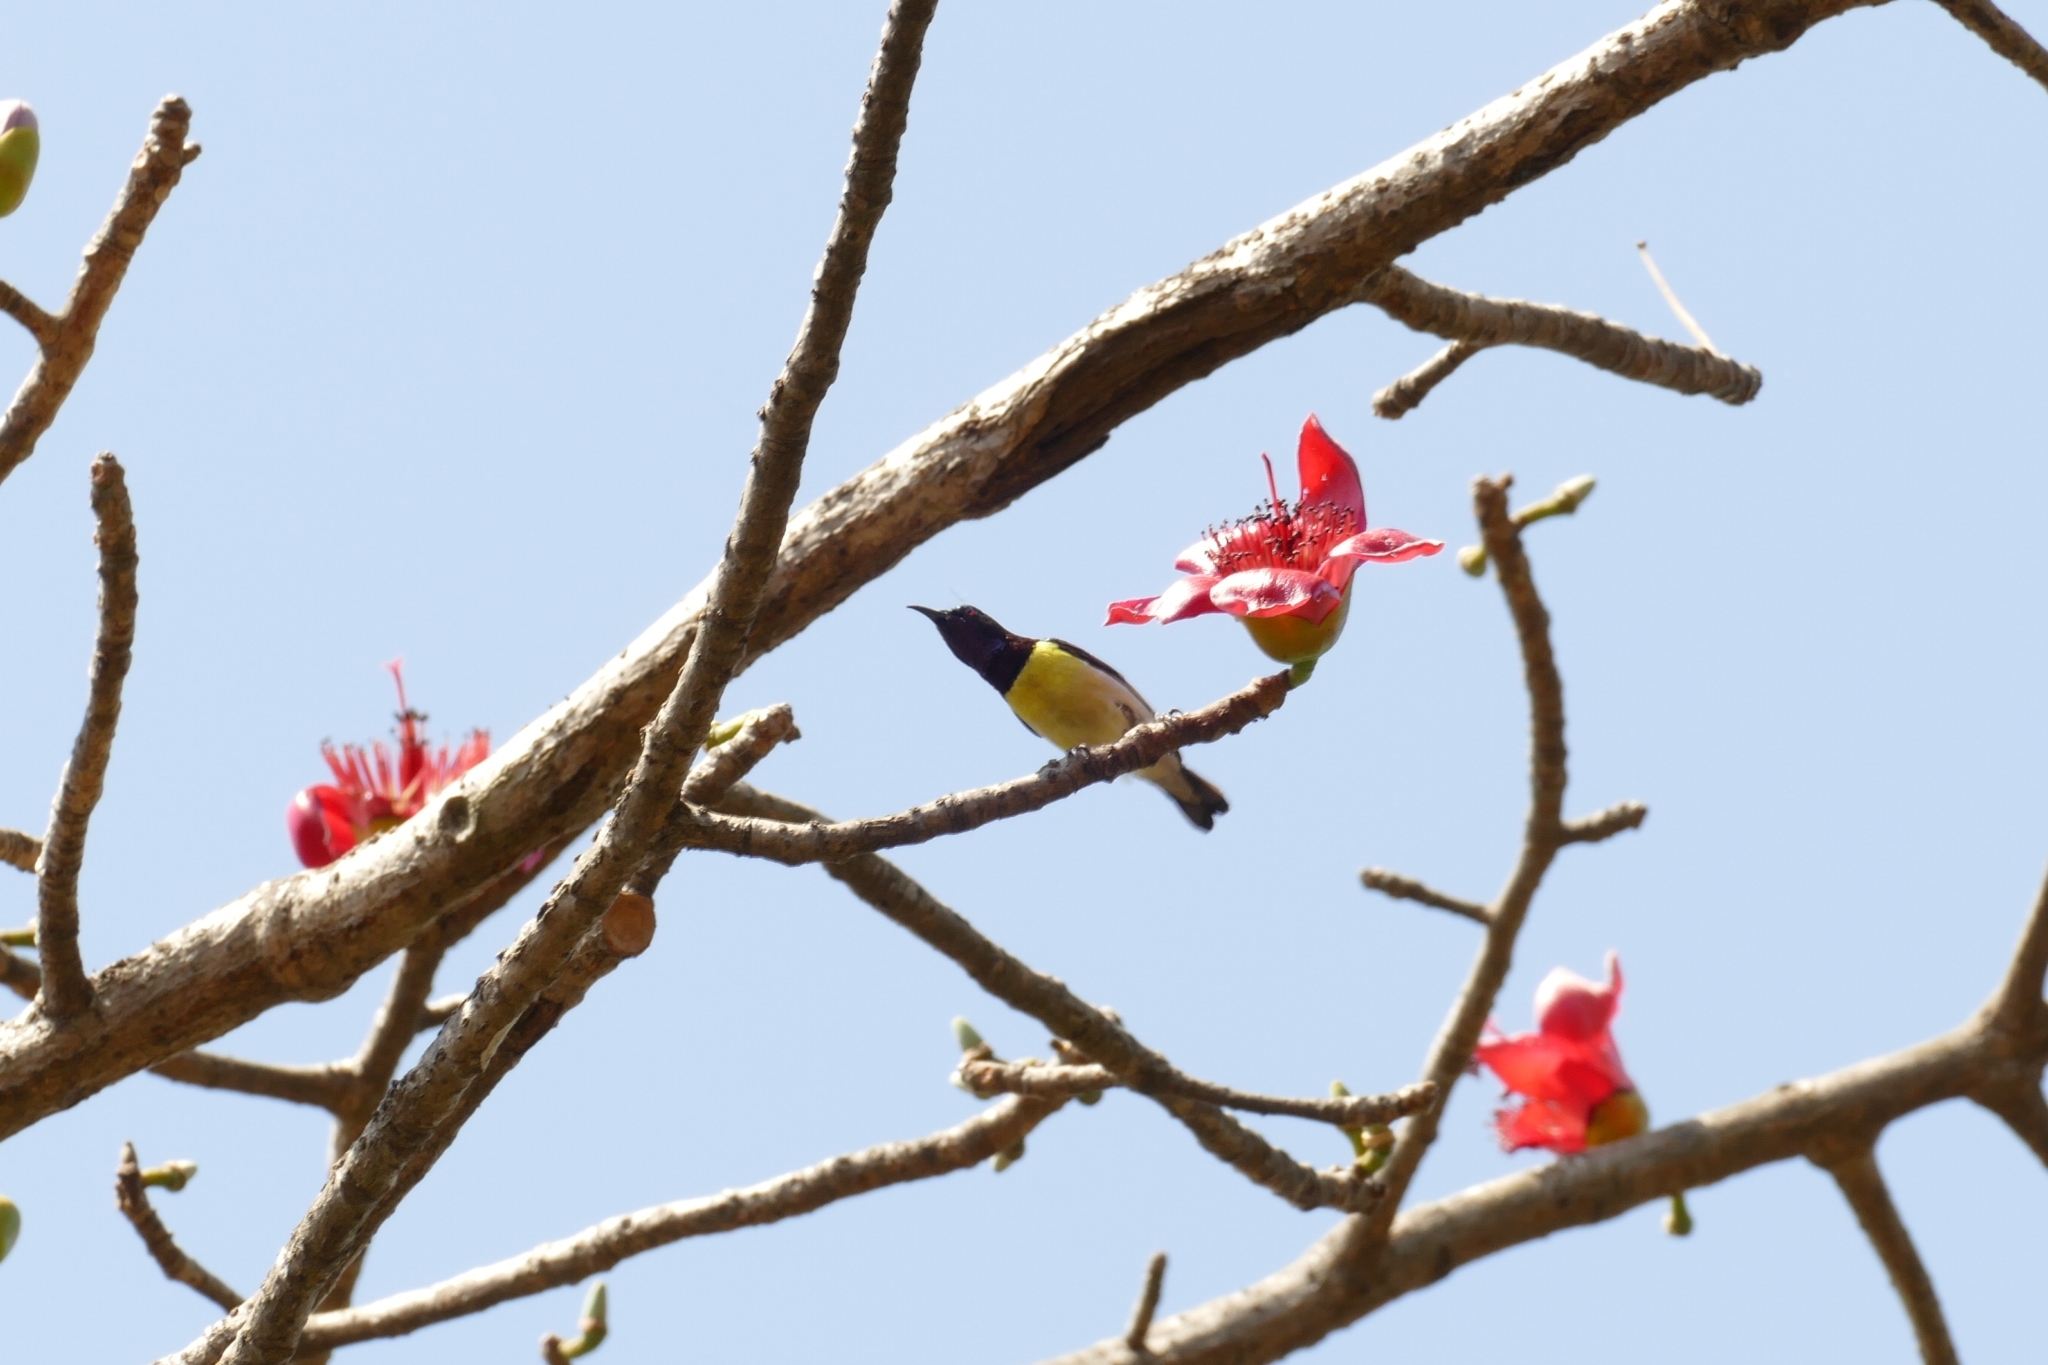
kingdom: Animalia
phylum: Chordata
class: Aves
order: Passeriformes
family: Nectariniidae
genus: Leptocoma
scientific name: Leptocoma zeylonica
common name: Purple-rumped sunbird
